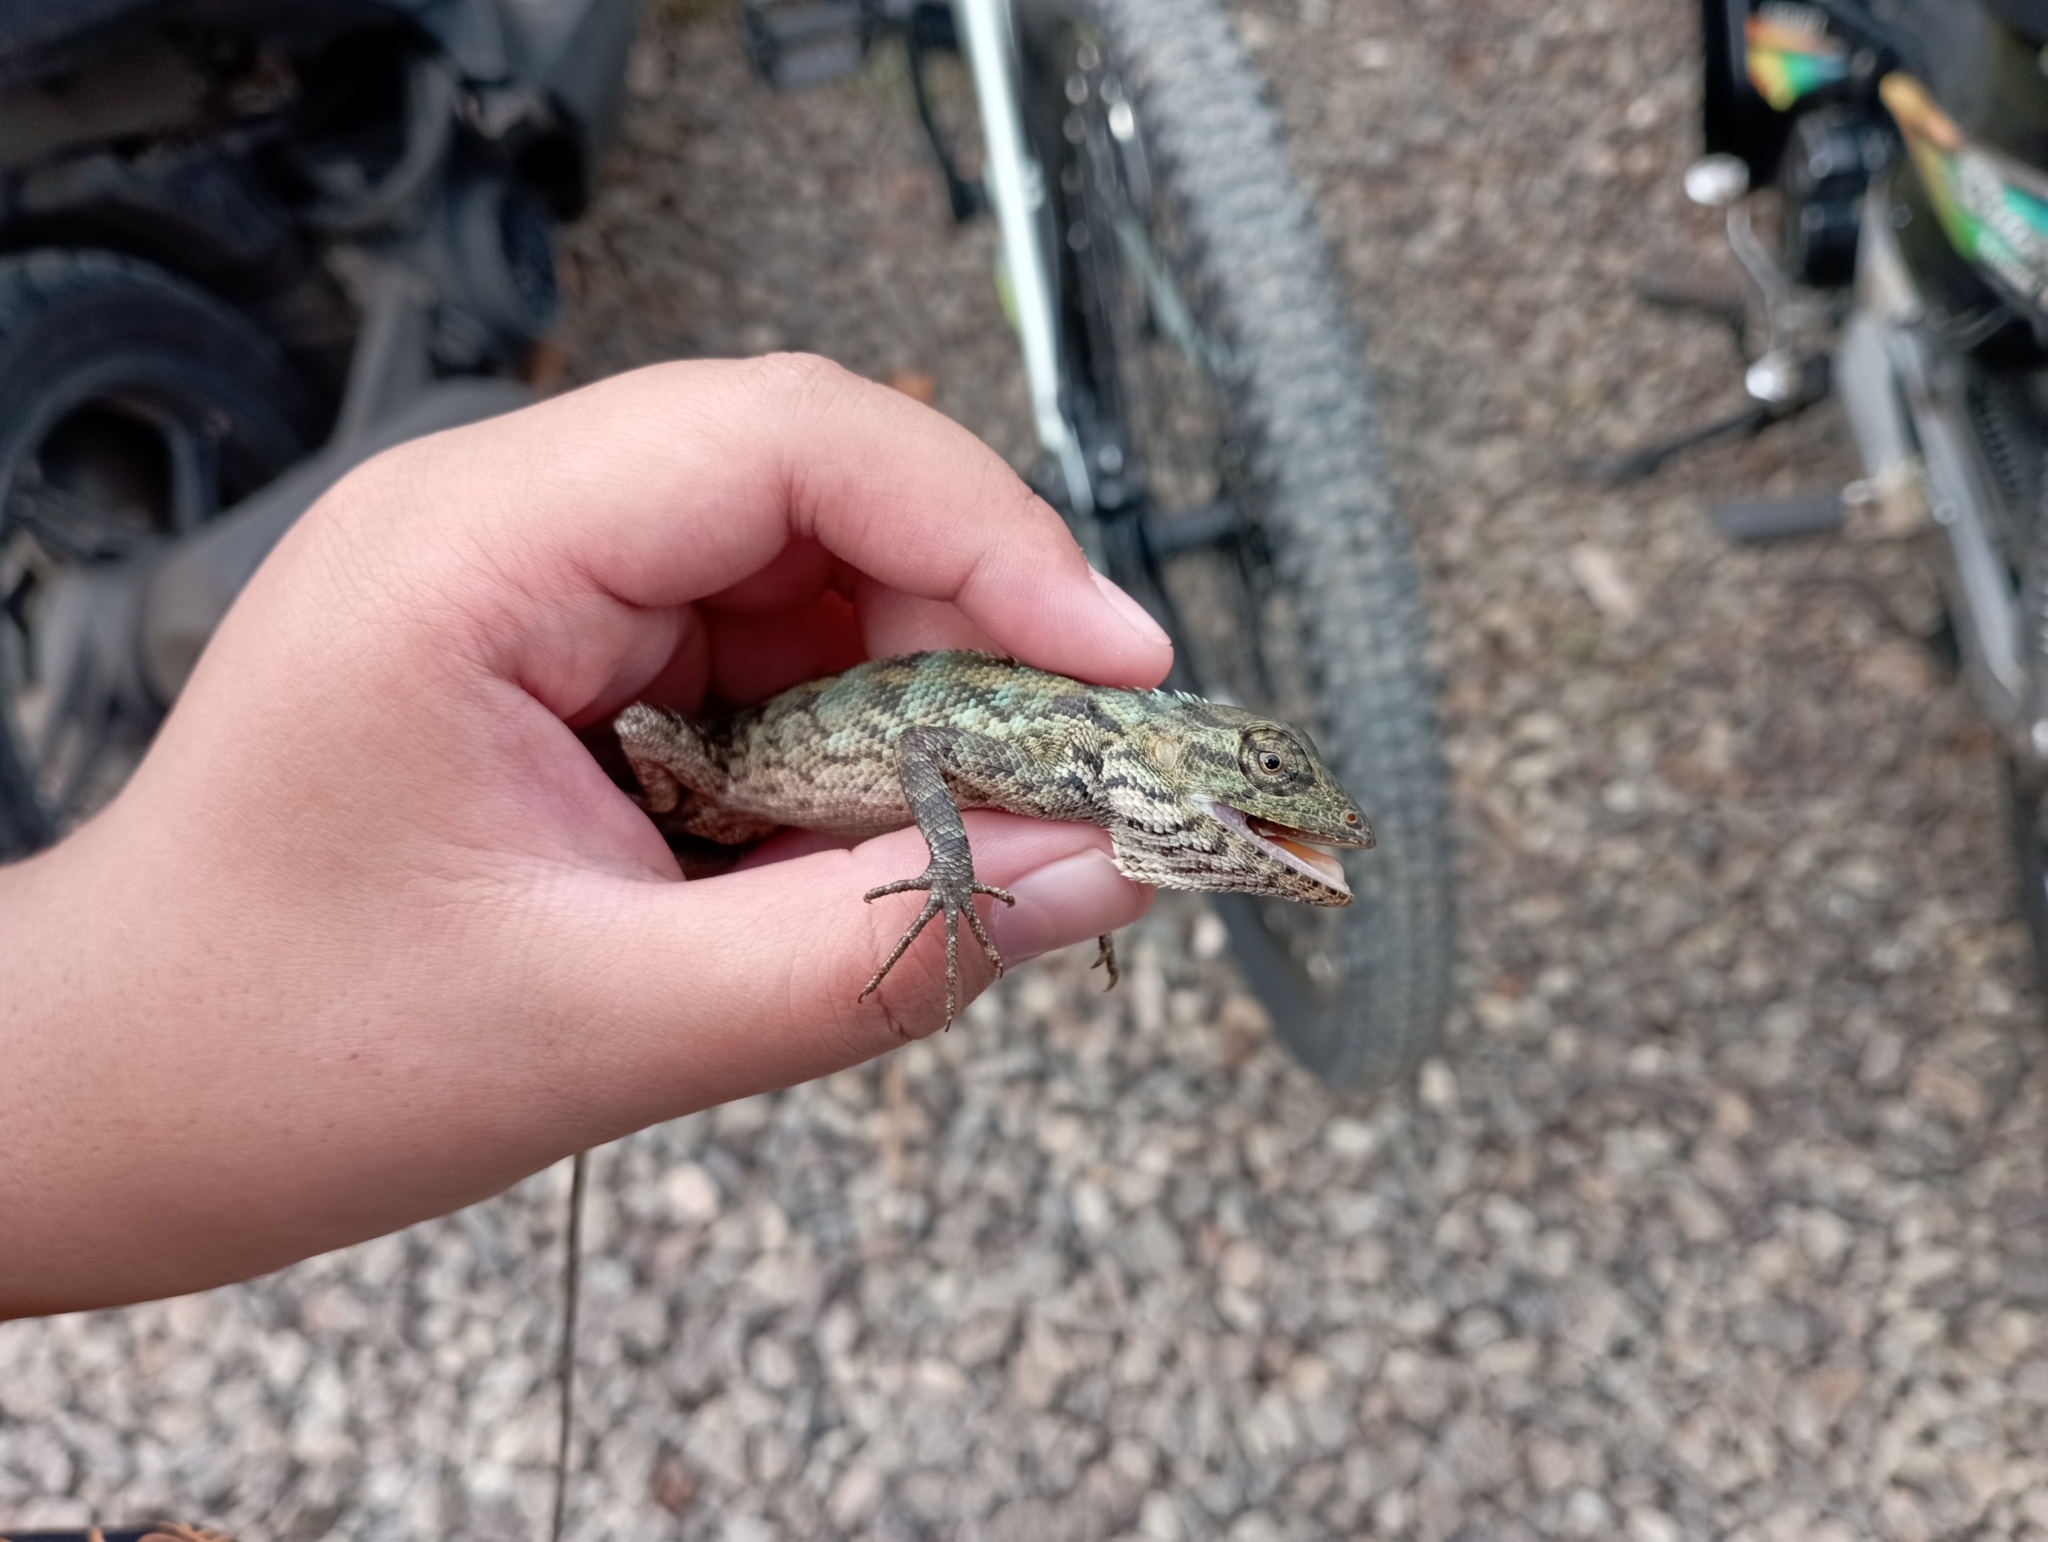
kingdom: Animalia
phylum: Chordata
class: Squamata
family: Agamidae
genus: Calotes
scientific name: Calotes versicolor
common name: Oriental garden lizard
